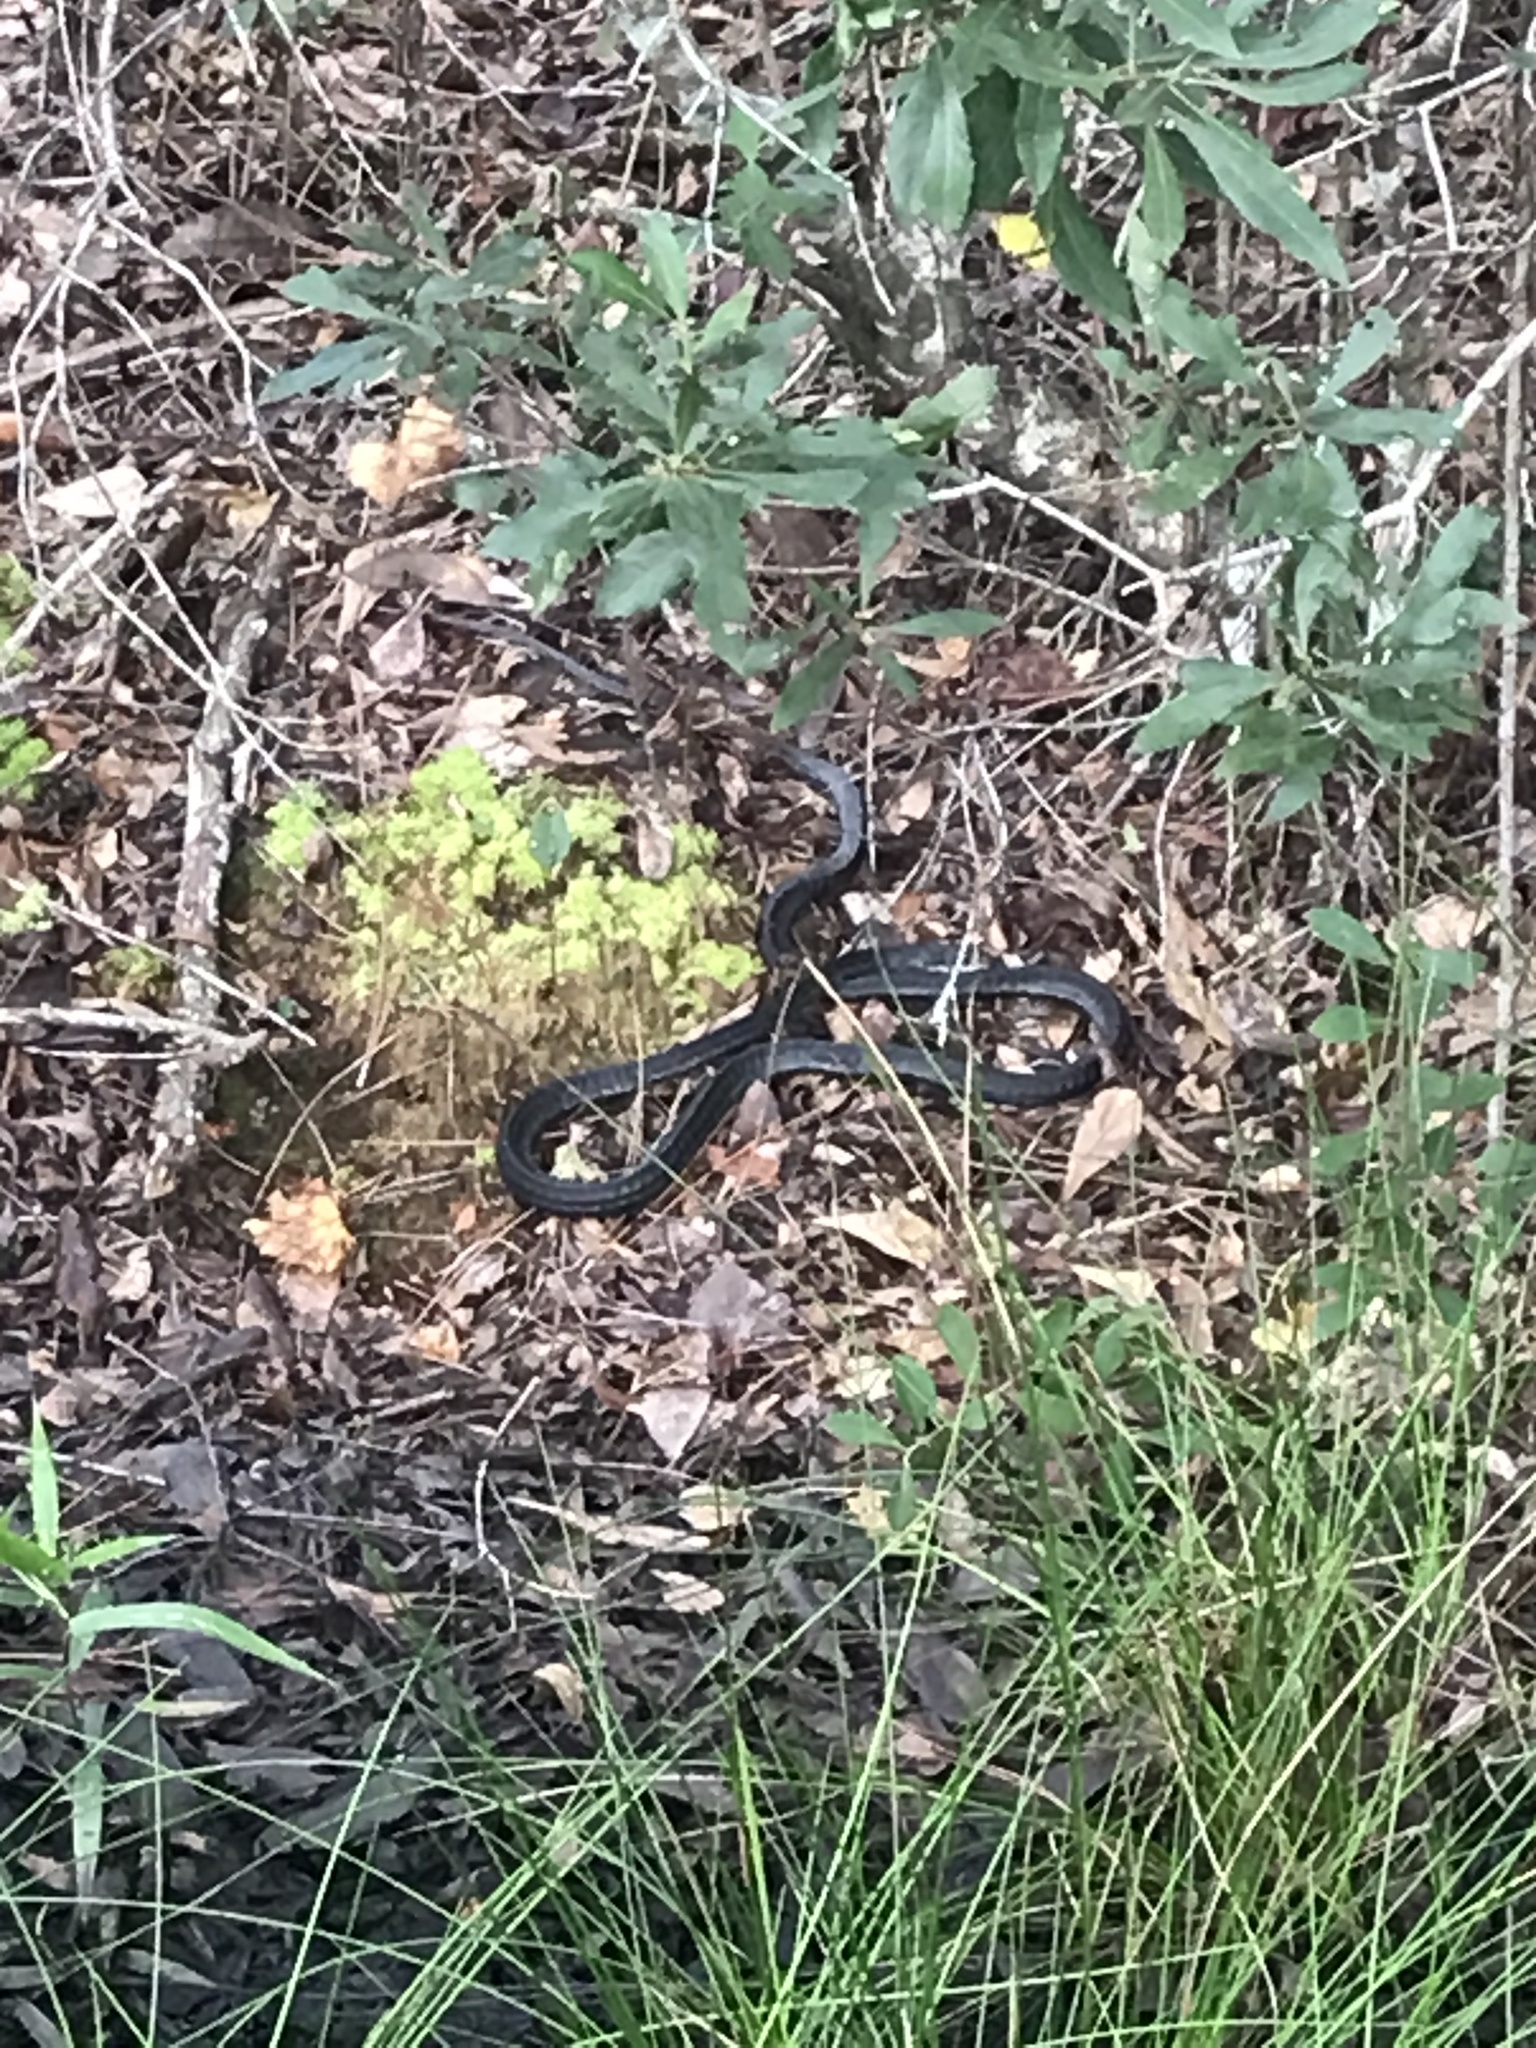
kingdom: Animalia
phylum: Chordata
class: Squamata
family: Colubridae
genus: Coluber
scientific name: Coluber constrictor
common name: Eastern racer
